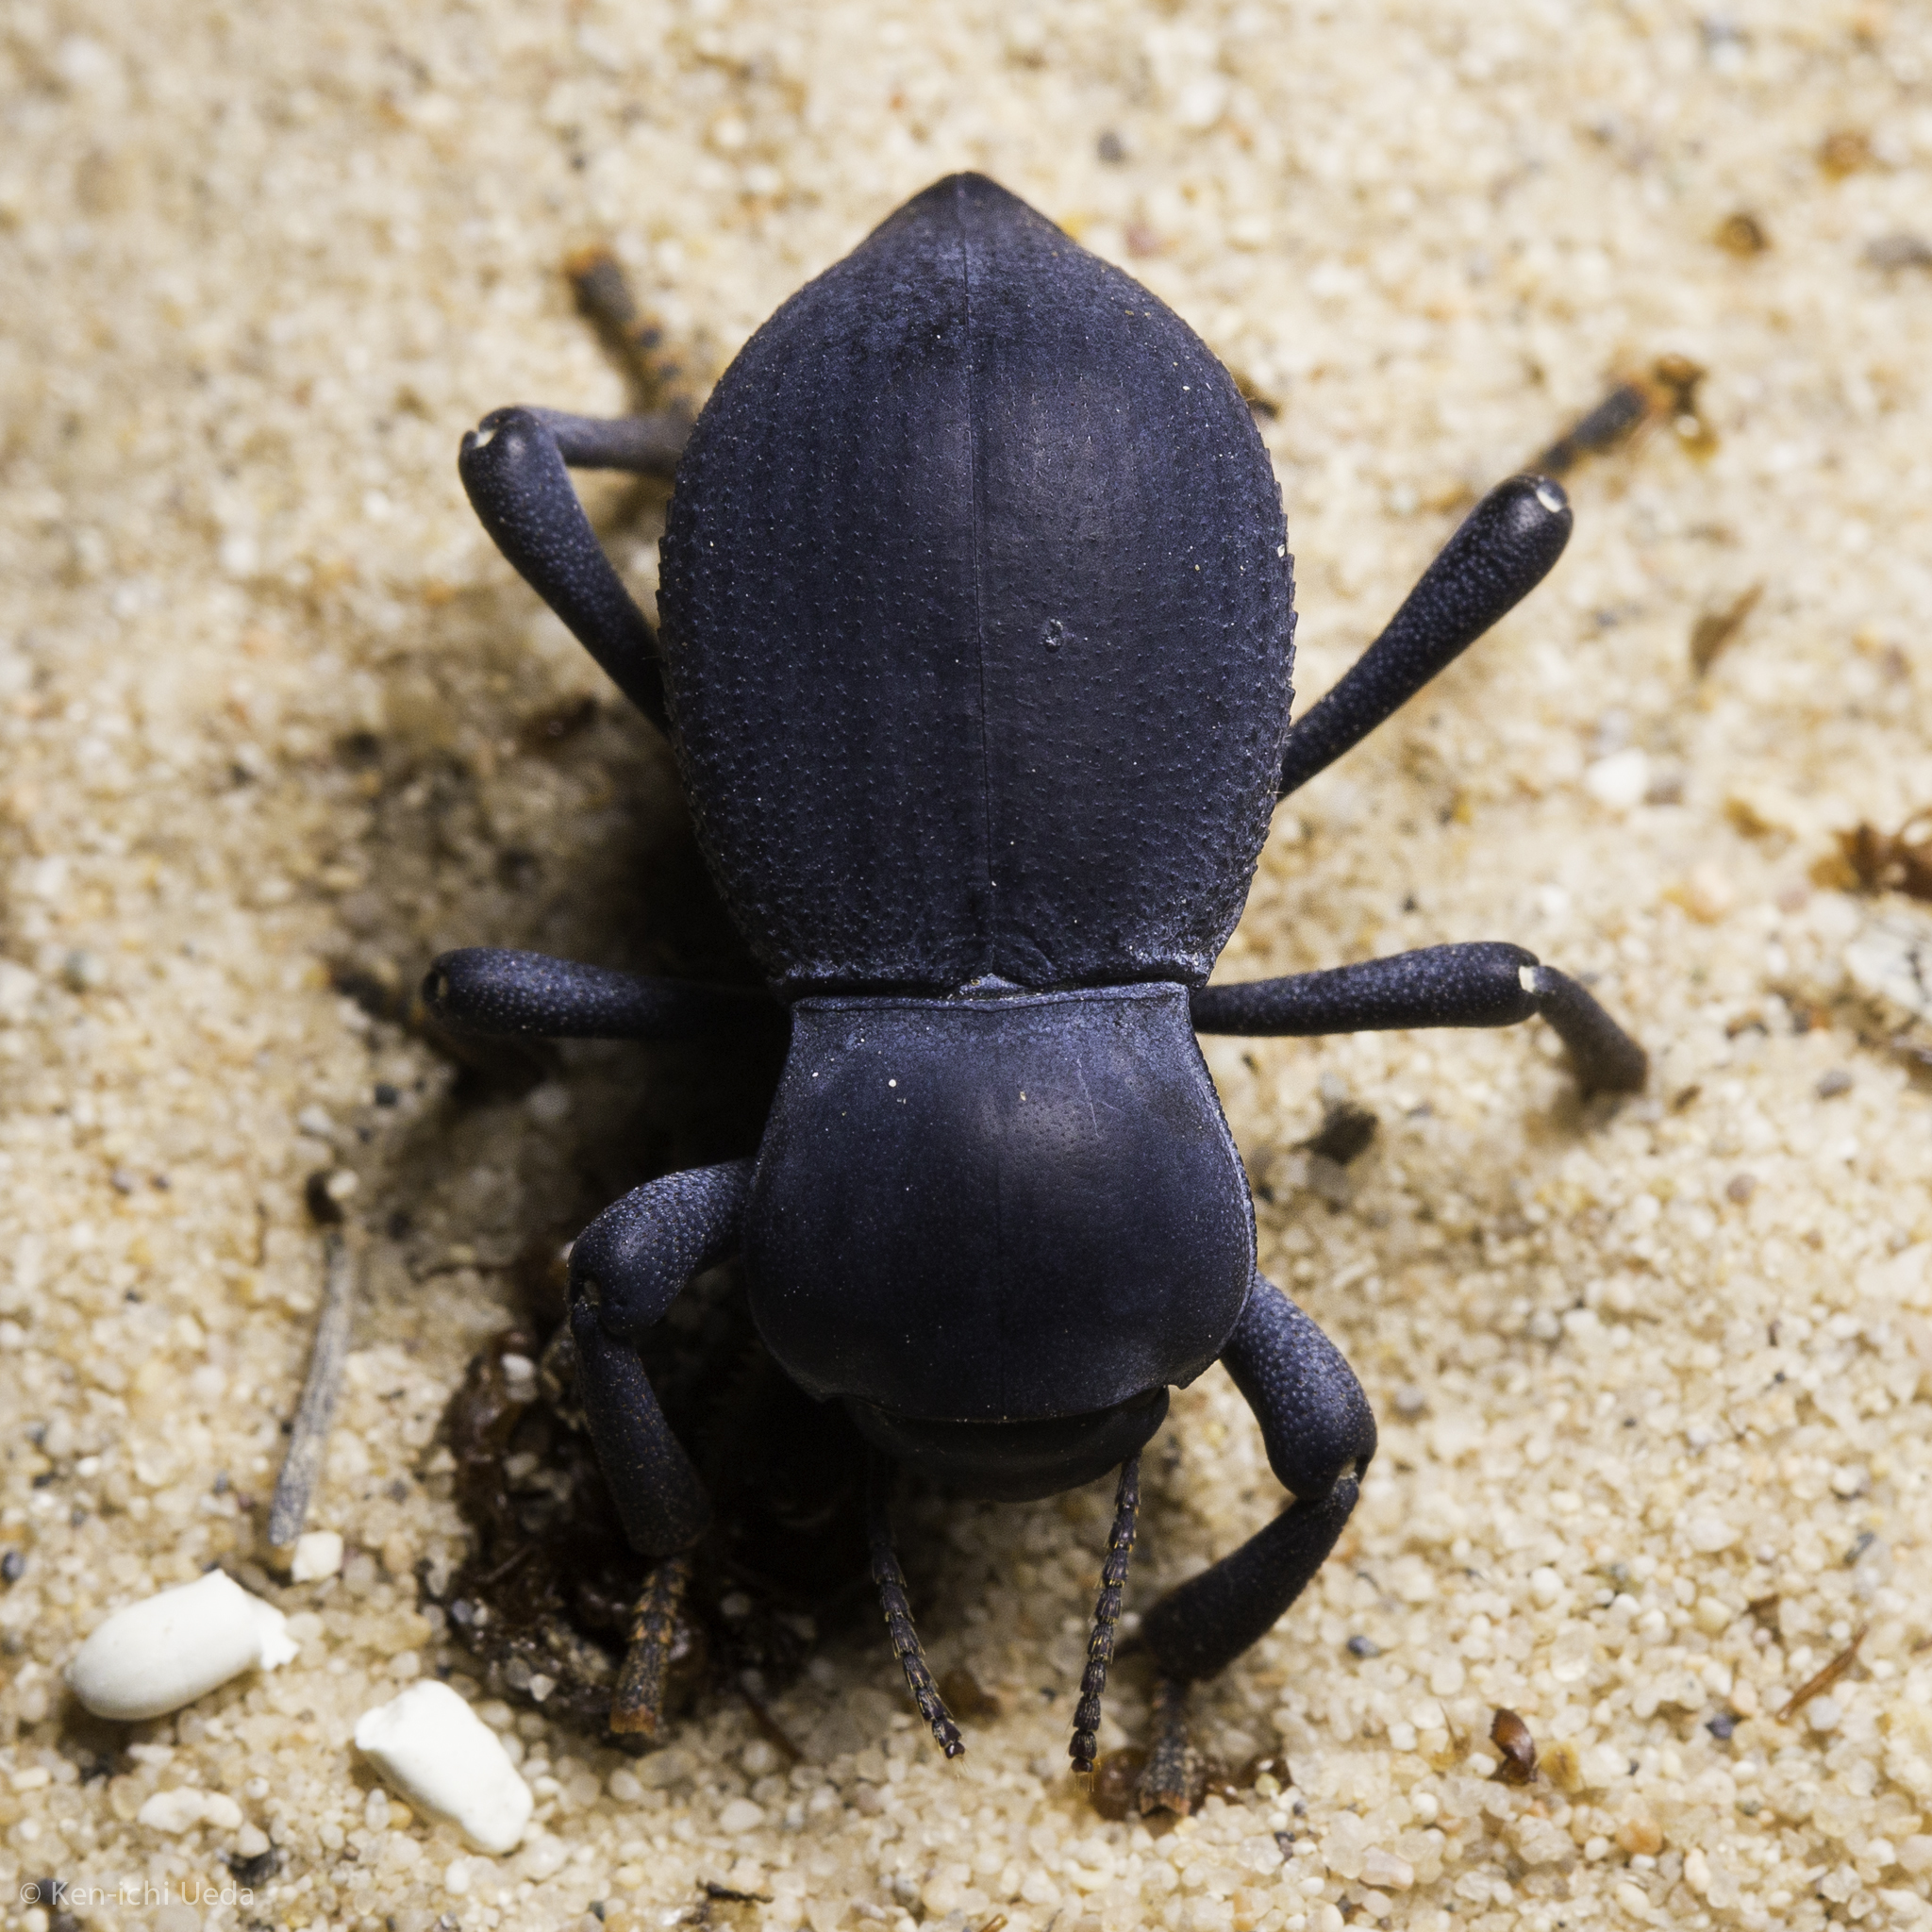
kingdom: Animalia
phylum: Arthropoda
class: Insecta
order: Coleoptera
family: Tenebrionidae
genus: Asbolus
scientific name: Asbolus papillosus
